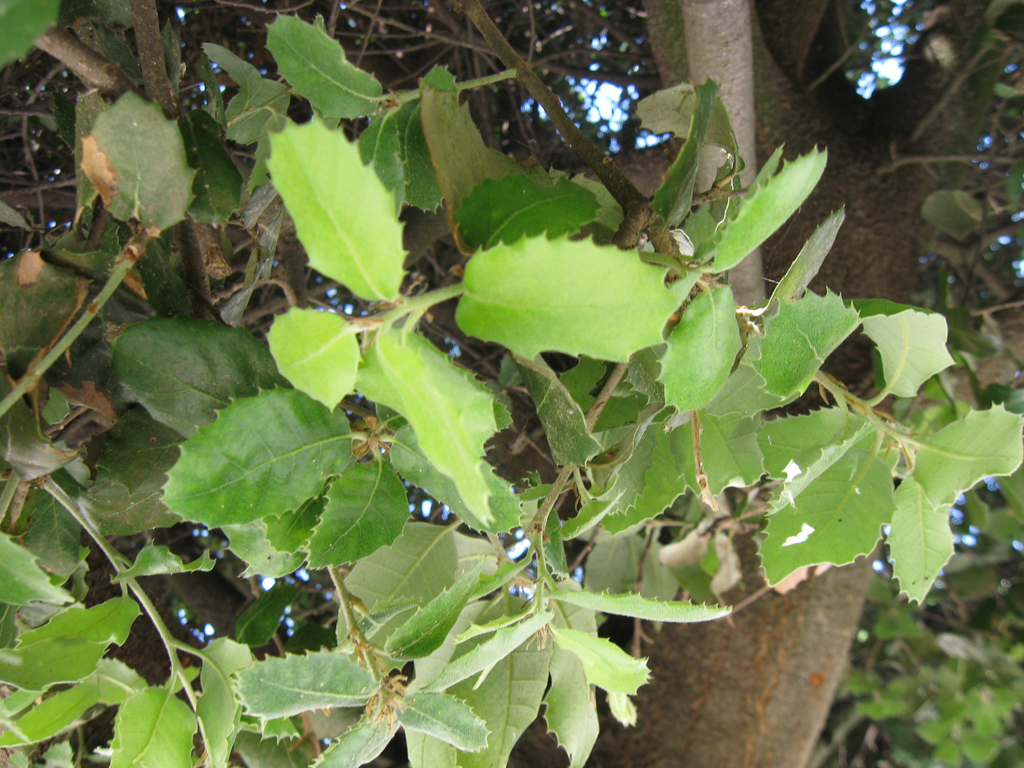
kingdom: Plantae
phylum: Tracheophyta
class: Magnoliopsida
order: Fagales
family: Fagaceae
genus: Quercus
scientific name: Quercus ilex
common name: Evergreen oak
